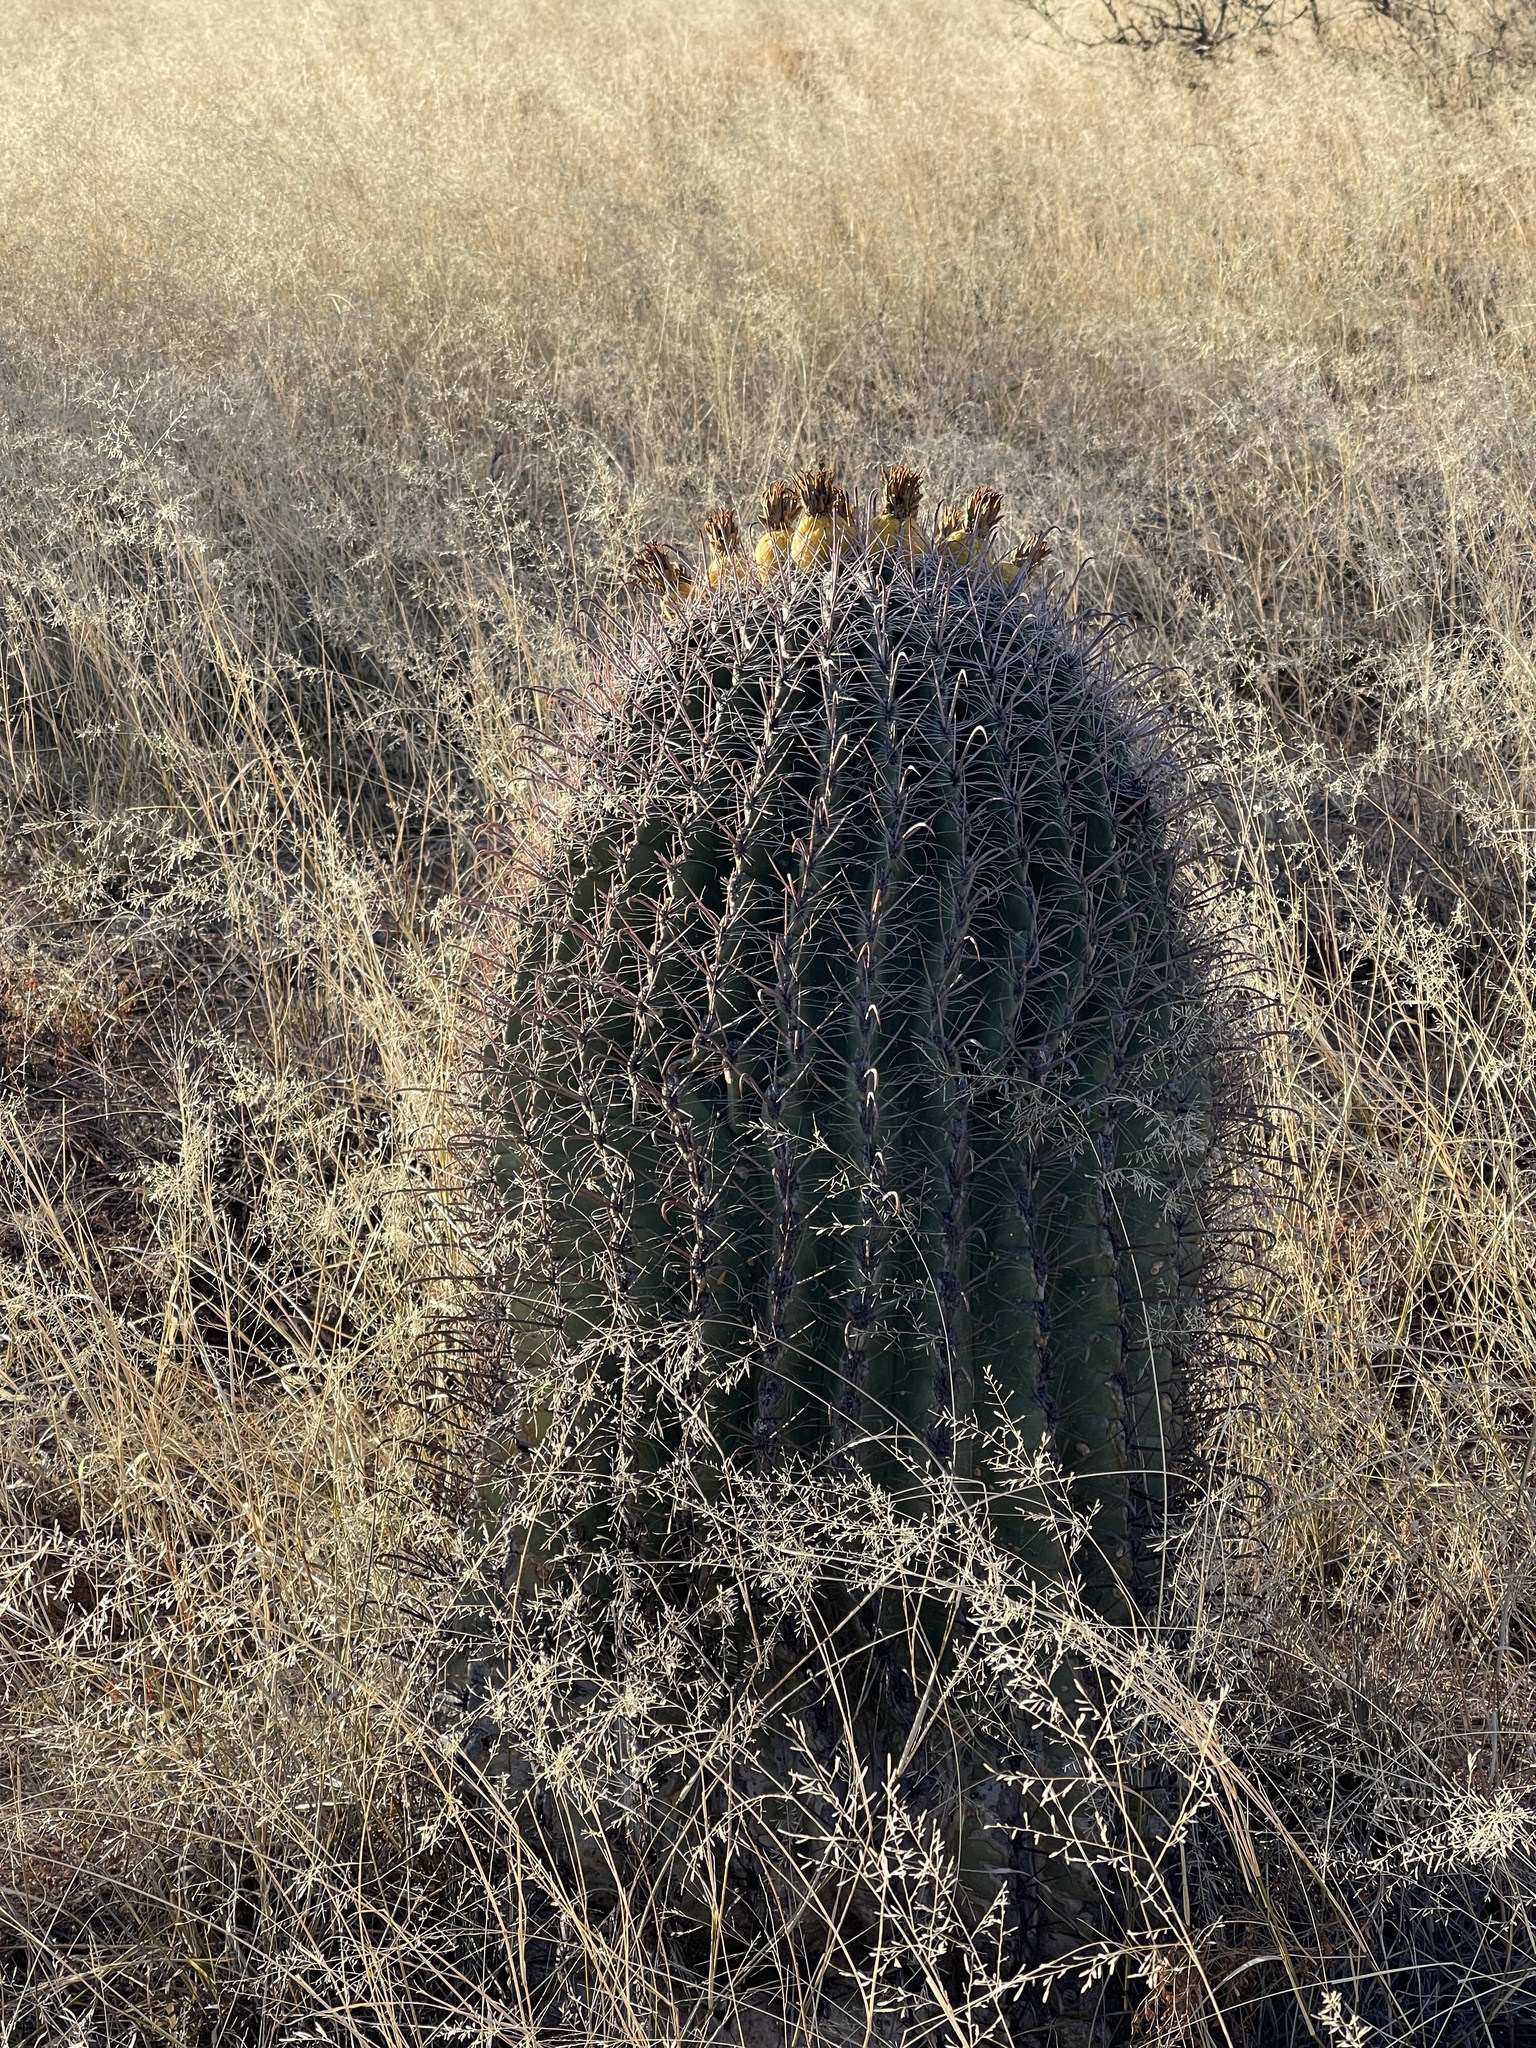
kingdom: Plantae
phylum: Tracheophyta
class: Magnoliopsida
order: Caryophyllales
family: Cactaceae
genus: Ferocactus
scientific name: Ferocactus wislizeni
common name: Candy barrel cactus
